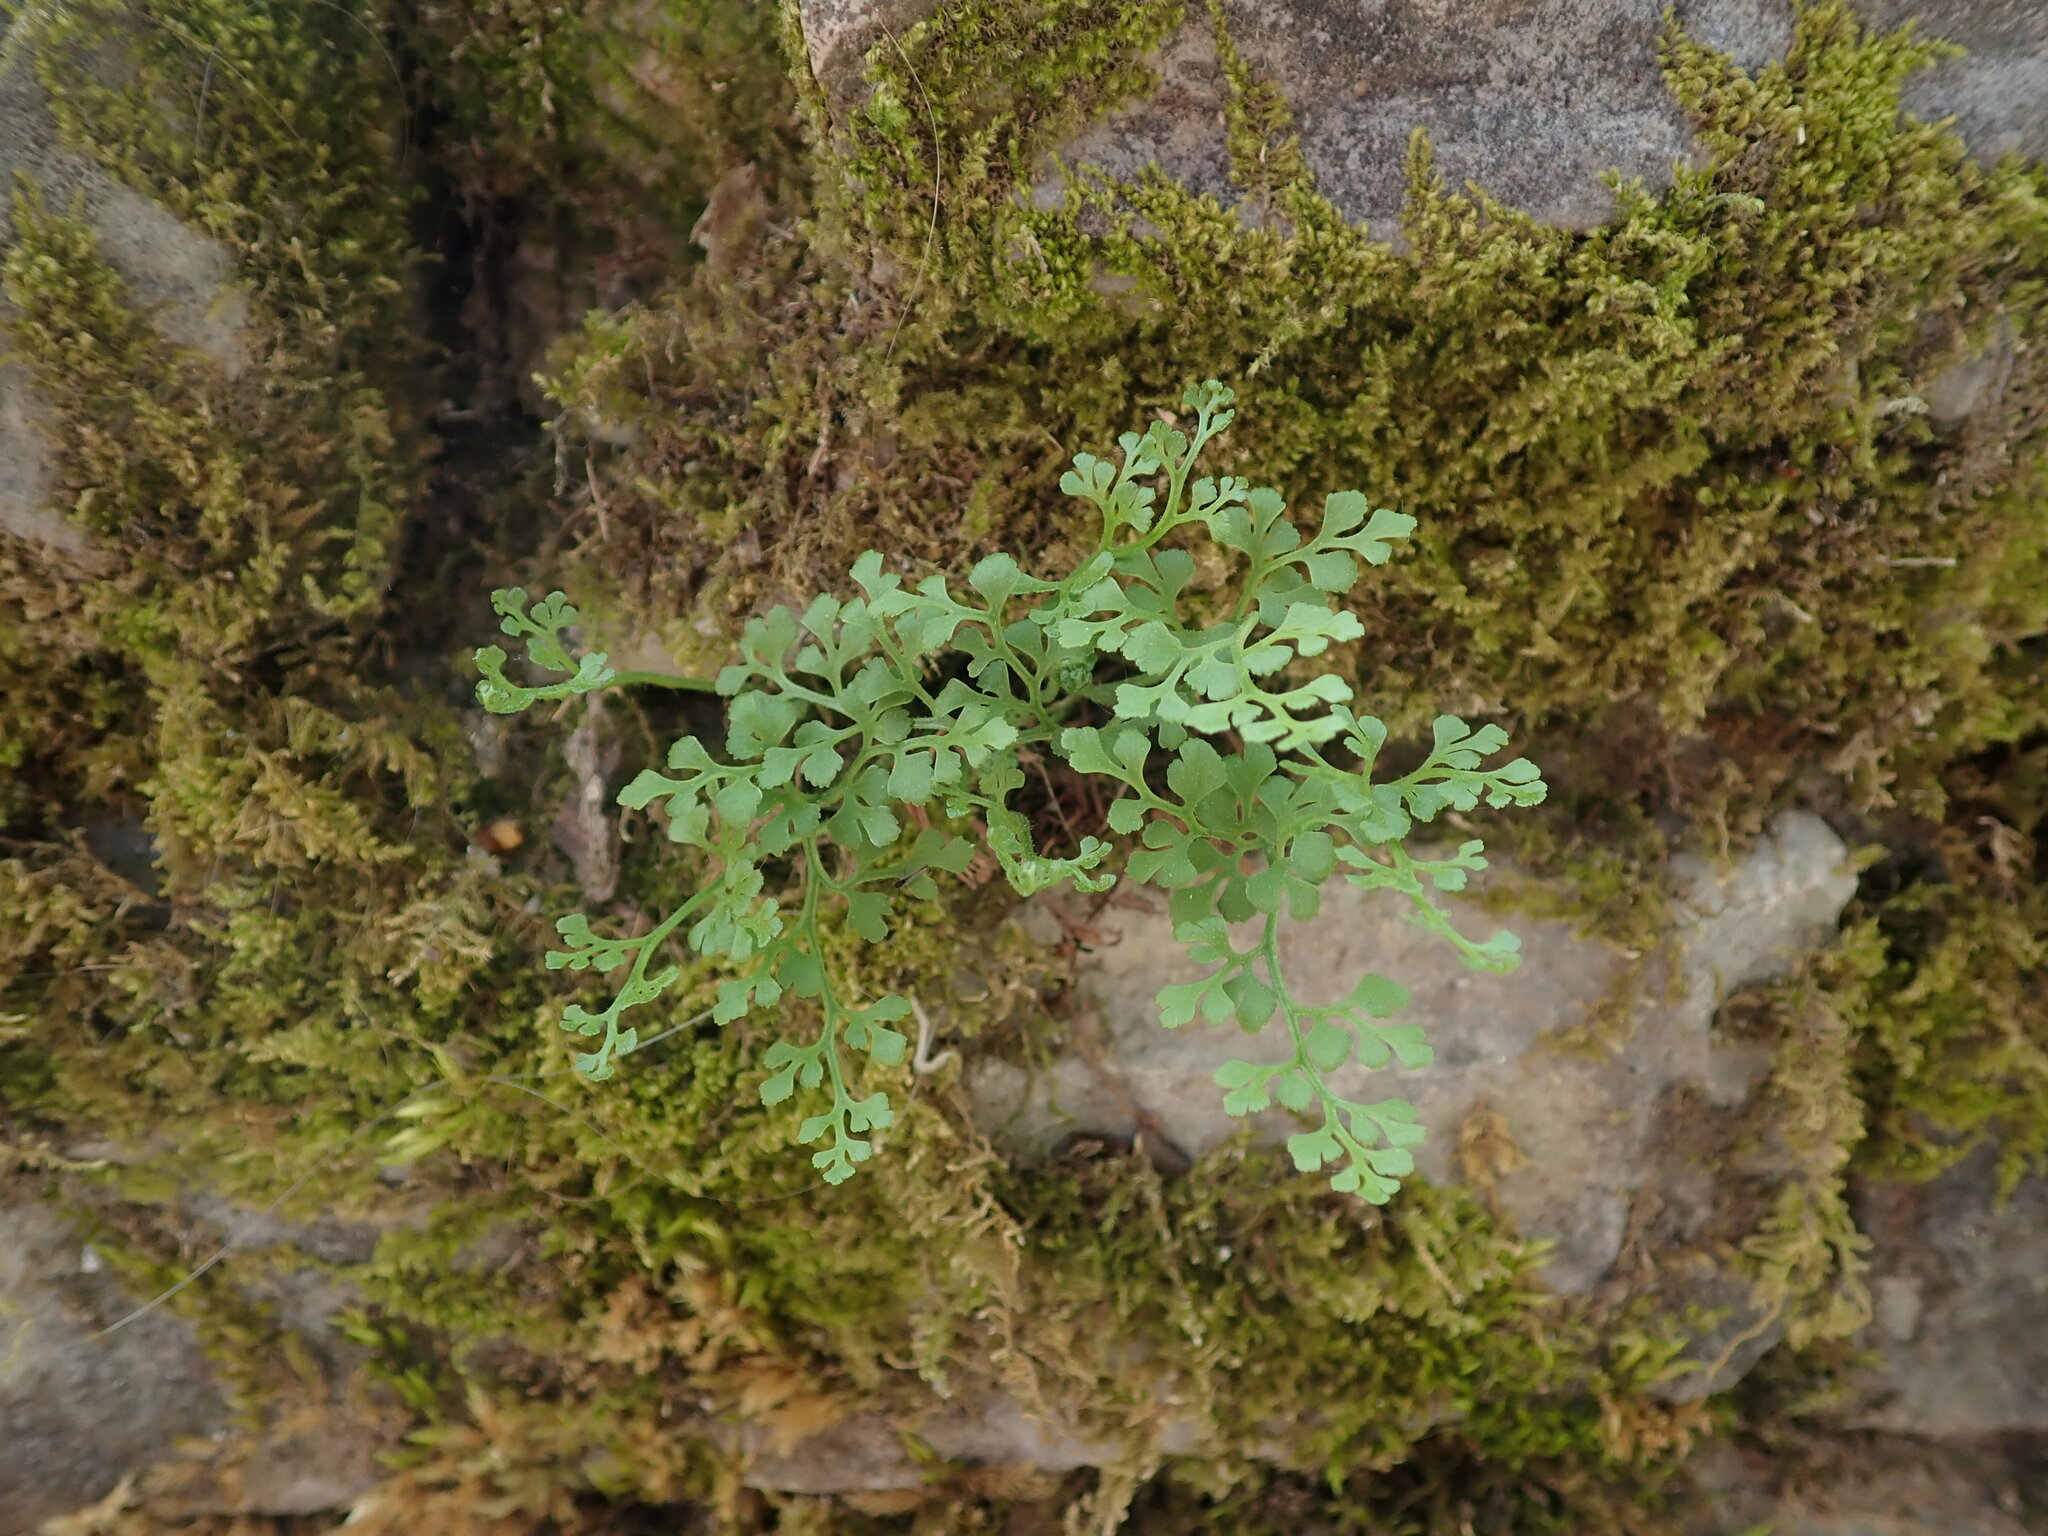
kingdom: Plantae
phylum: Tracheophyta
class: Polypodiopsida
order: Polypodiales
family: Aspleniaceae
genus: Asplenium
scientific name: Asplenium ruta-muraria
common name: Wall-rue
